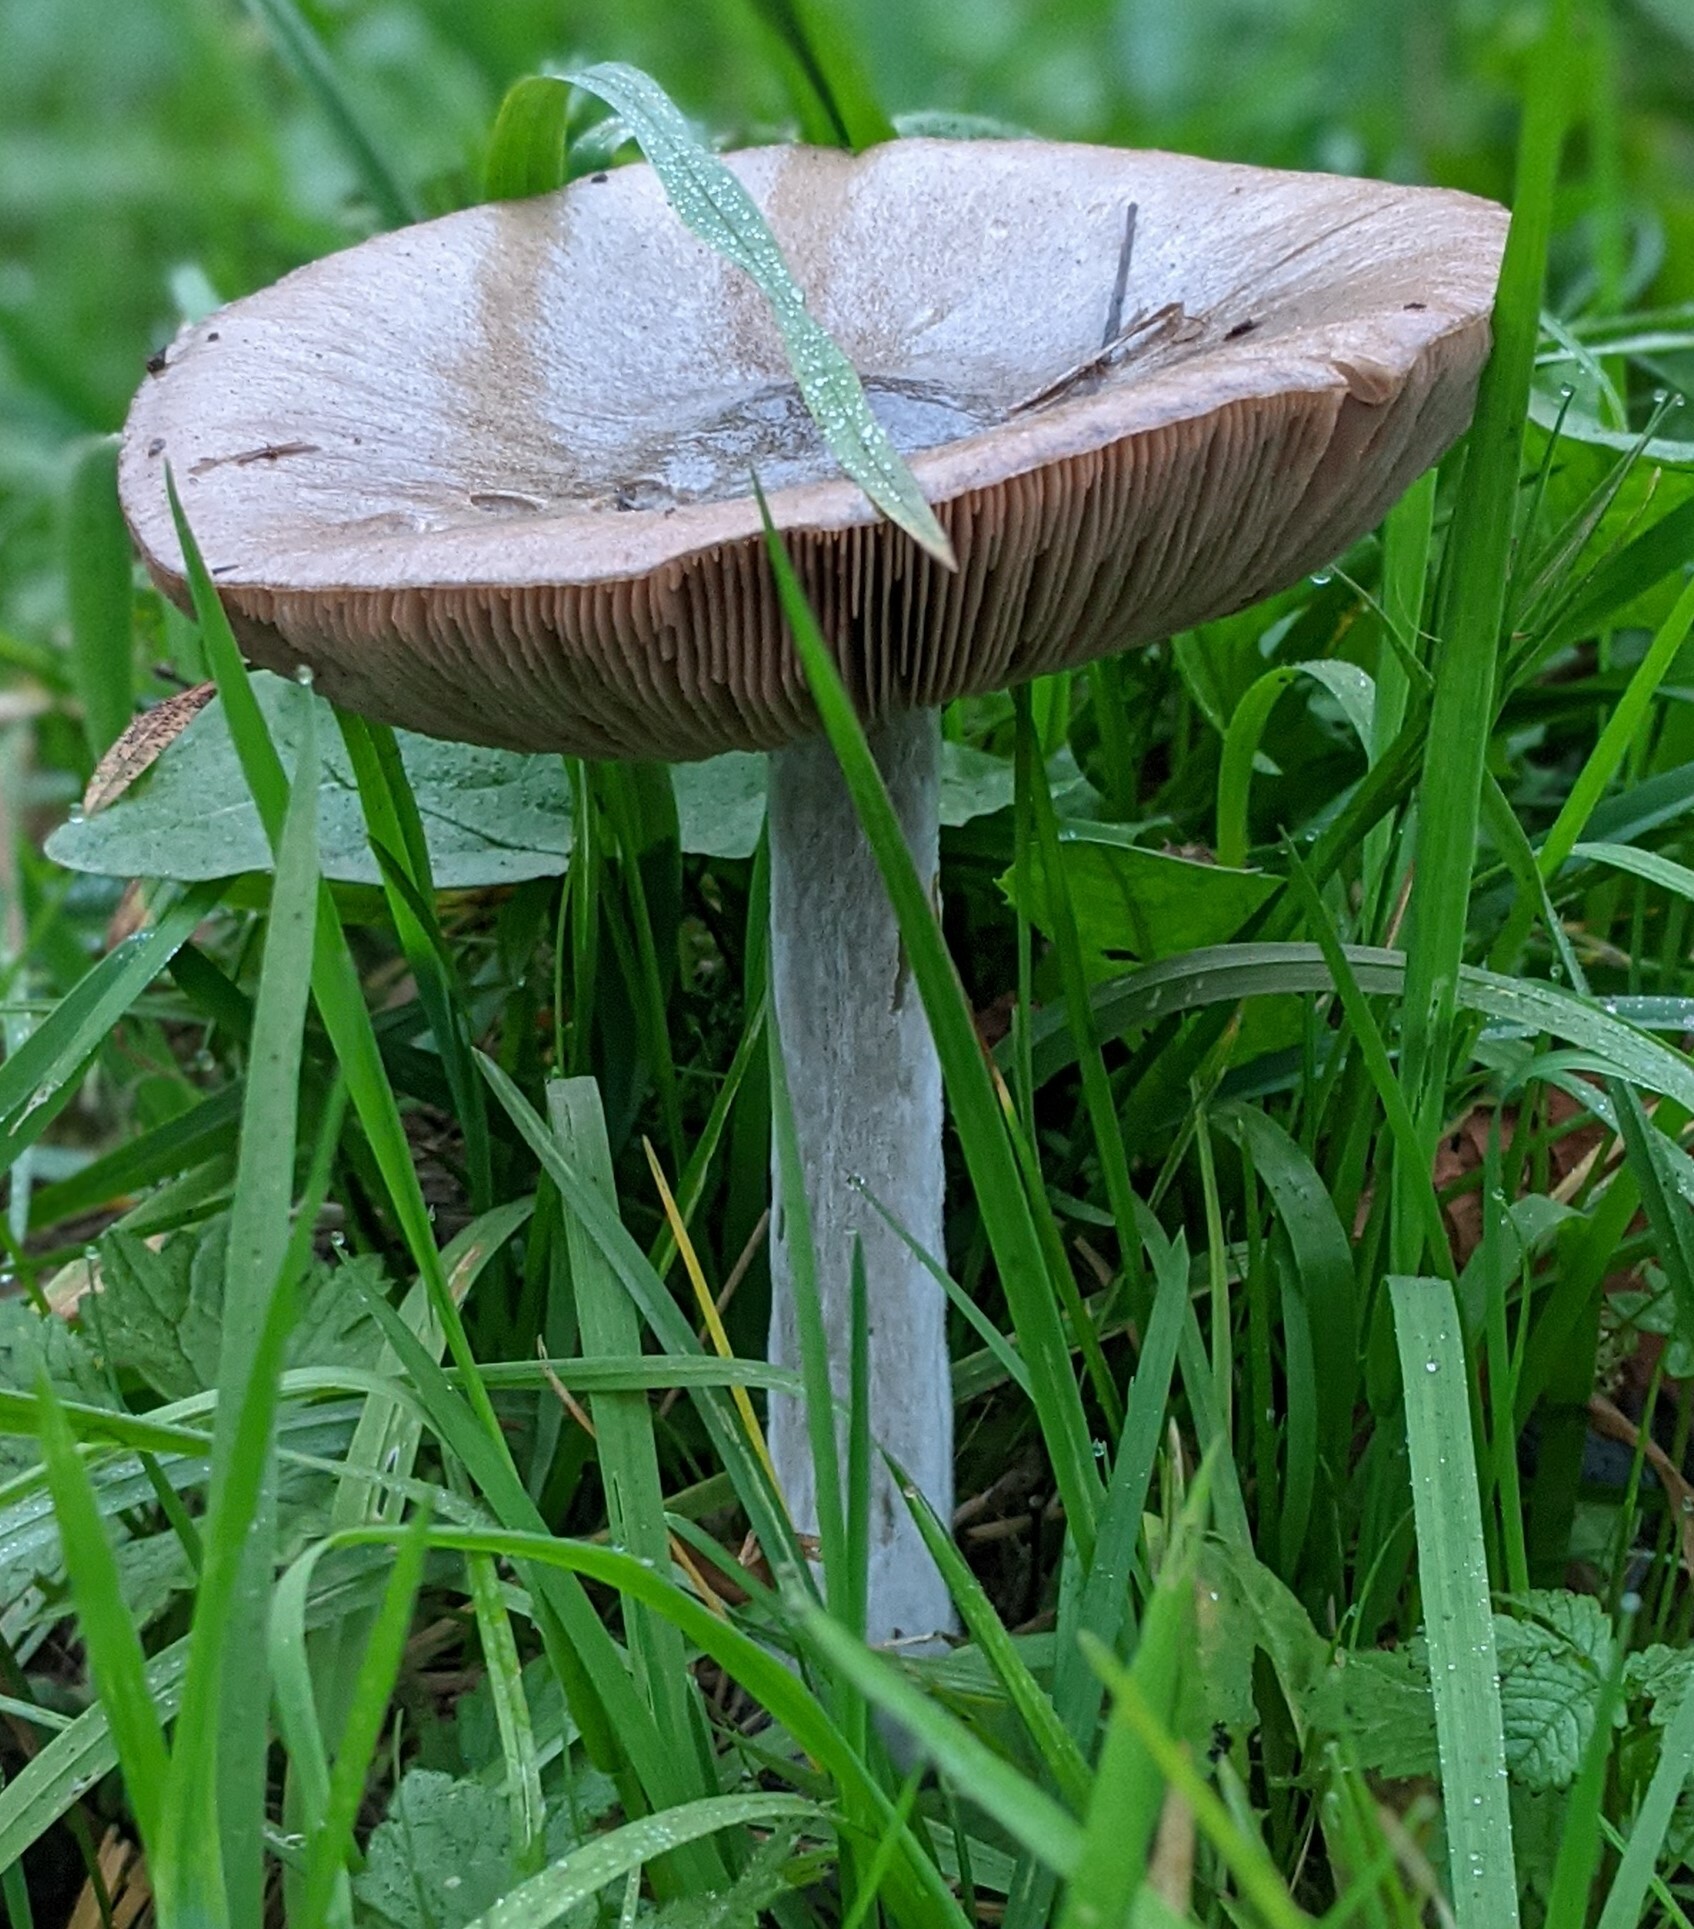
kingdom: Fungi
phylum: Basidiomycota
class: Agaricomycetes
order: Agaricales
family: Pluteaceae
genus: Volvopluteus
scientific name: Volvopluteus gloiocephalus
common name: Stubble rosegill
